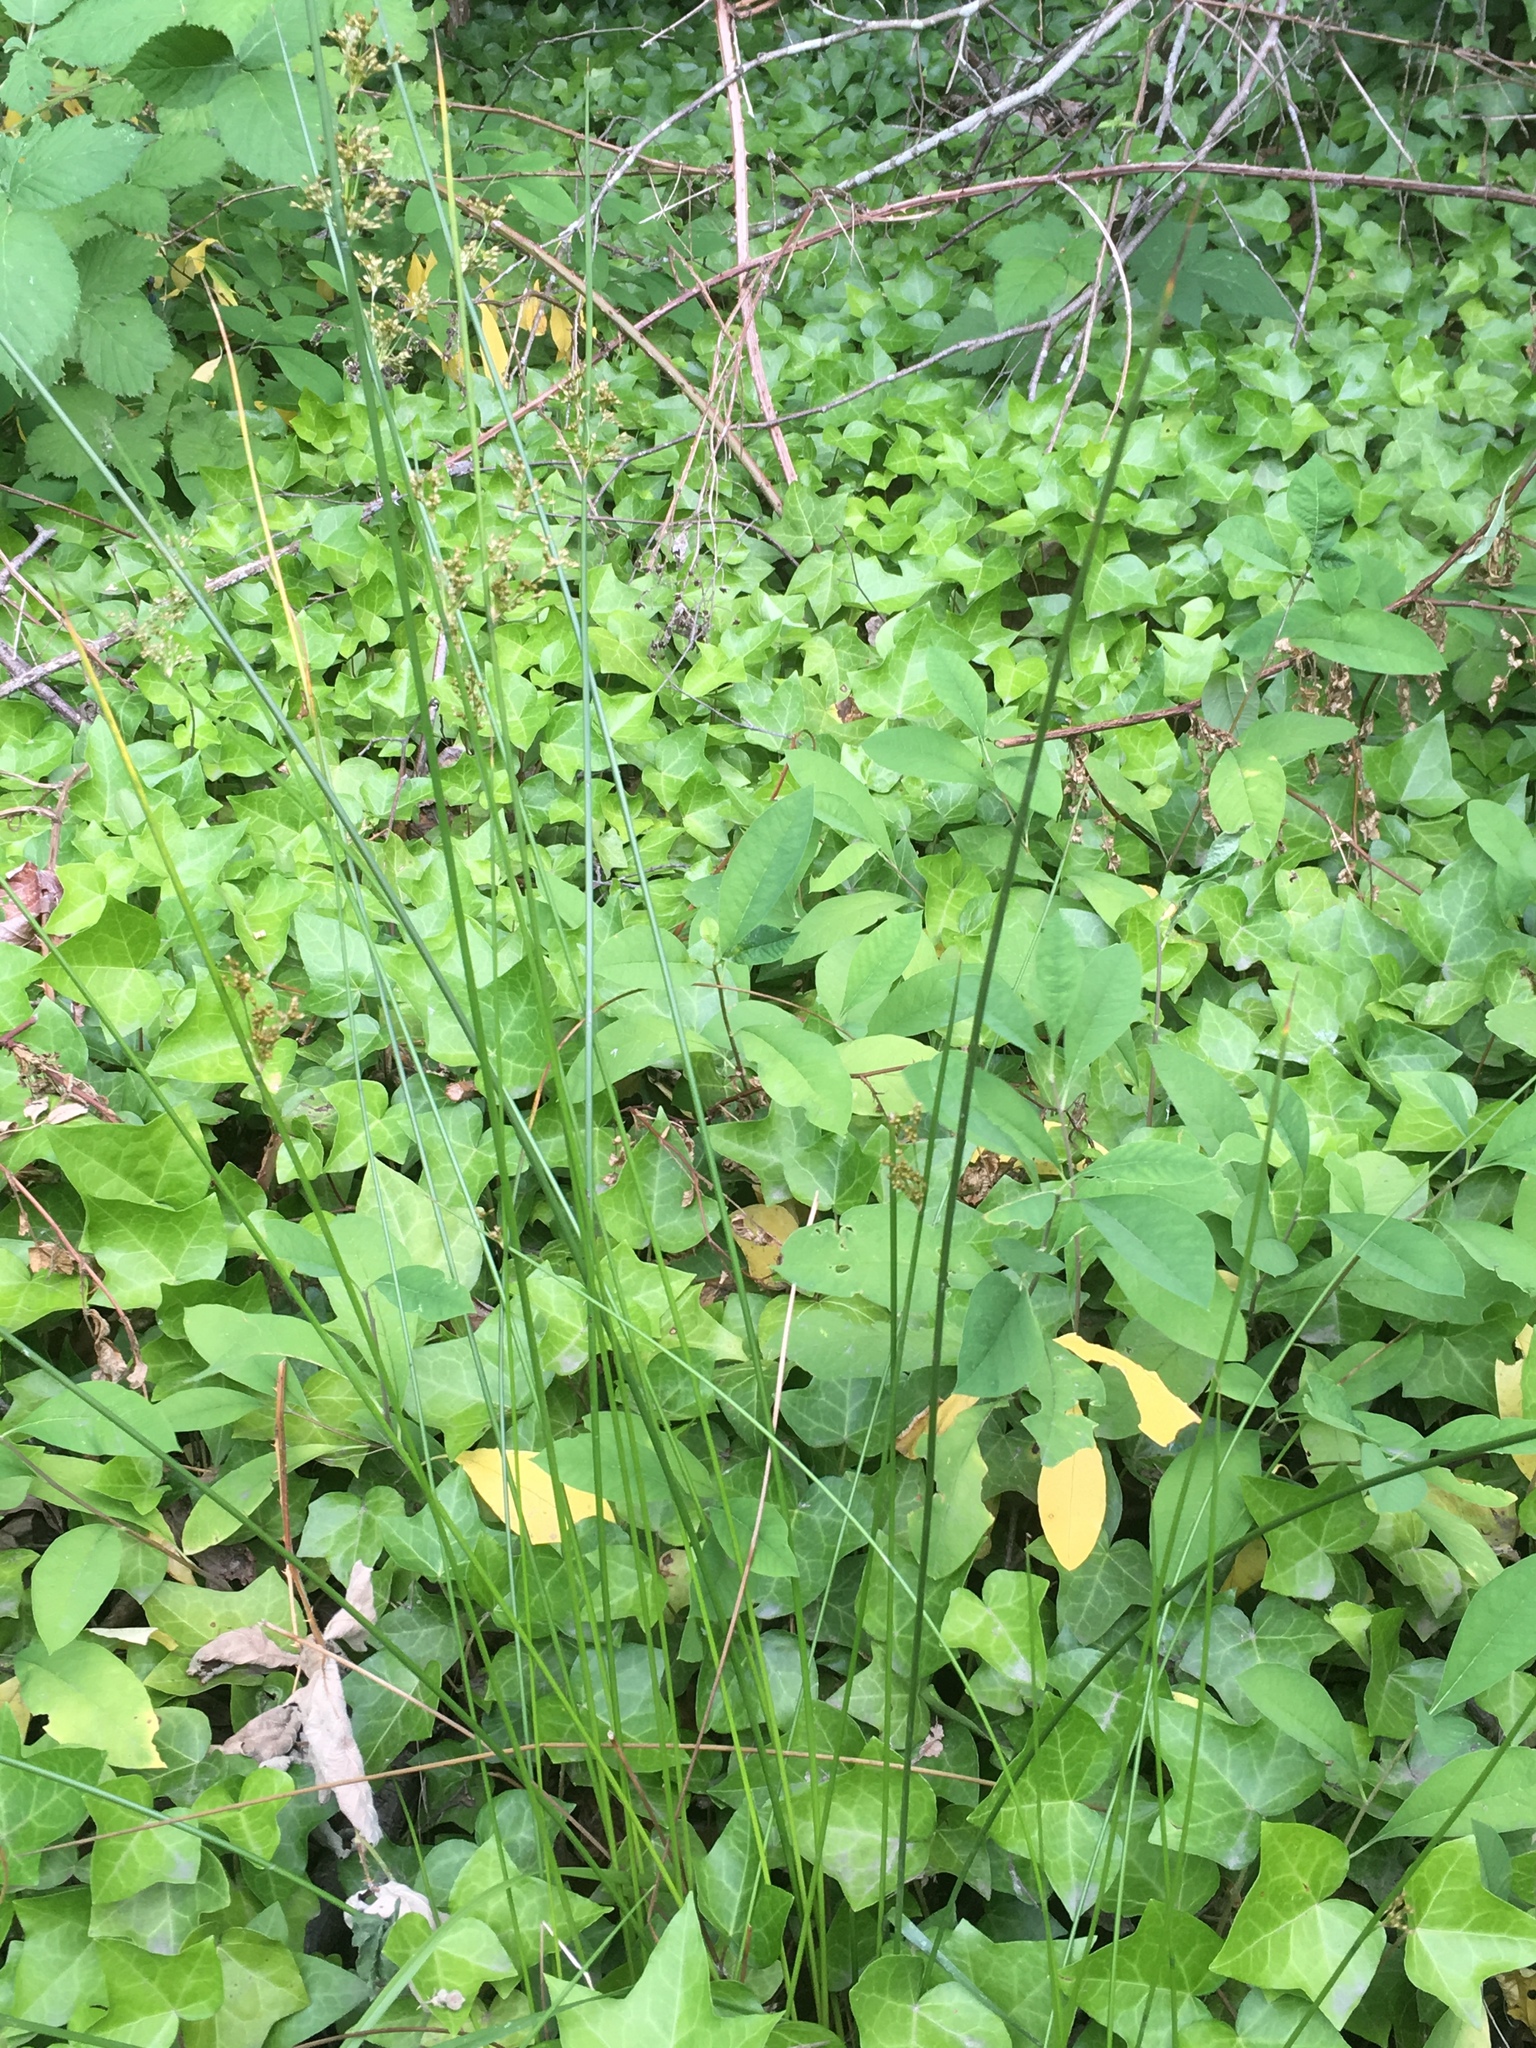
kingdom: Plantae
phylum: Tracheophyta
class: Liliopsida
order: Poales
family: Juncaceae
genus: Juncus
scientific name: Juncus effusus
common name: Soft rush
